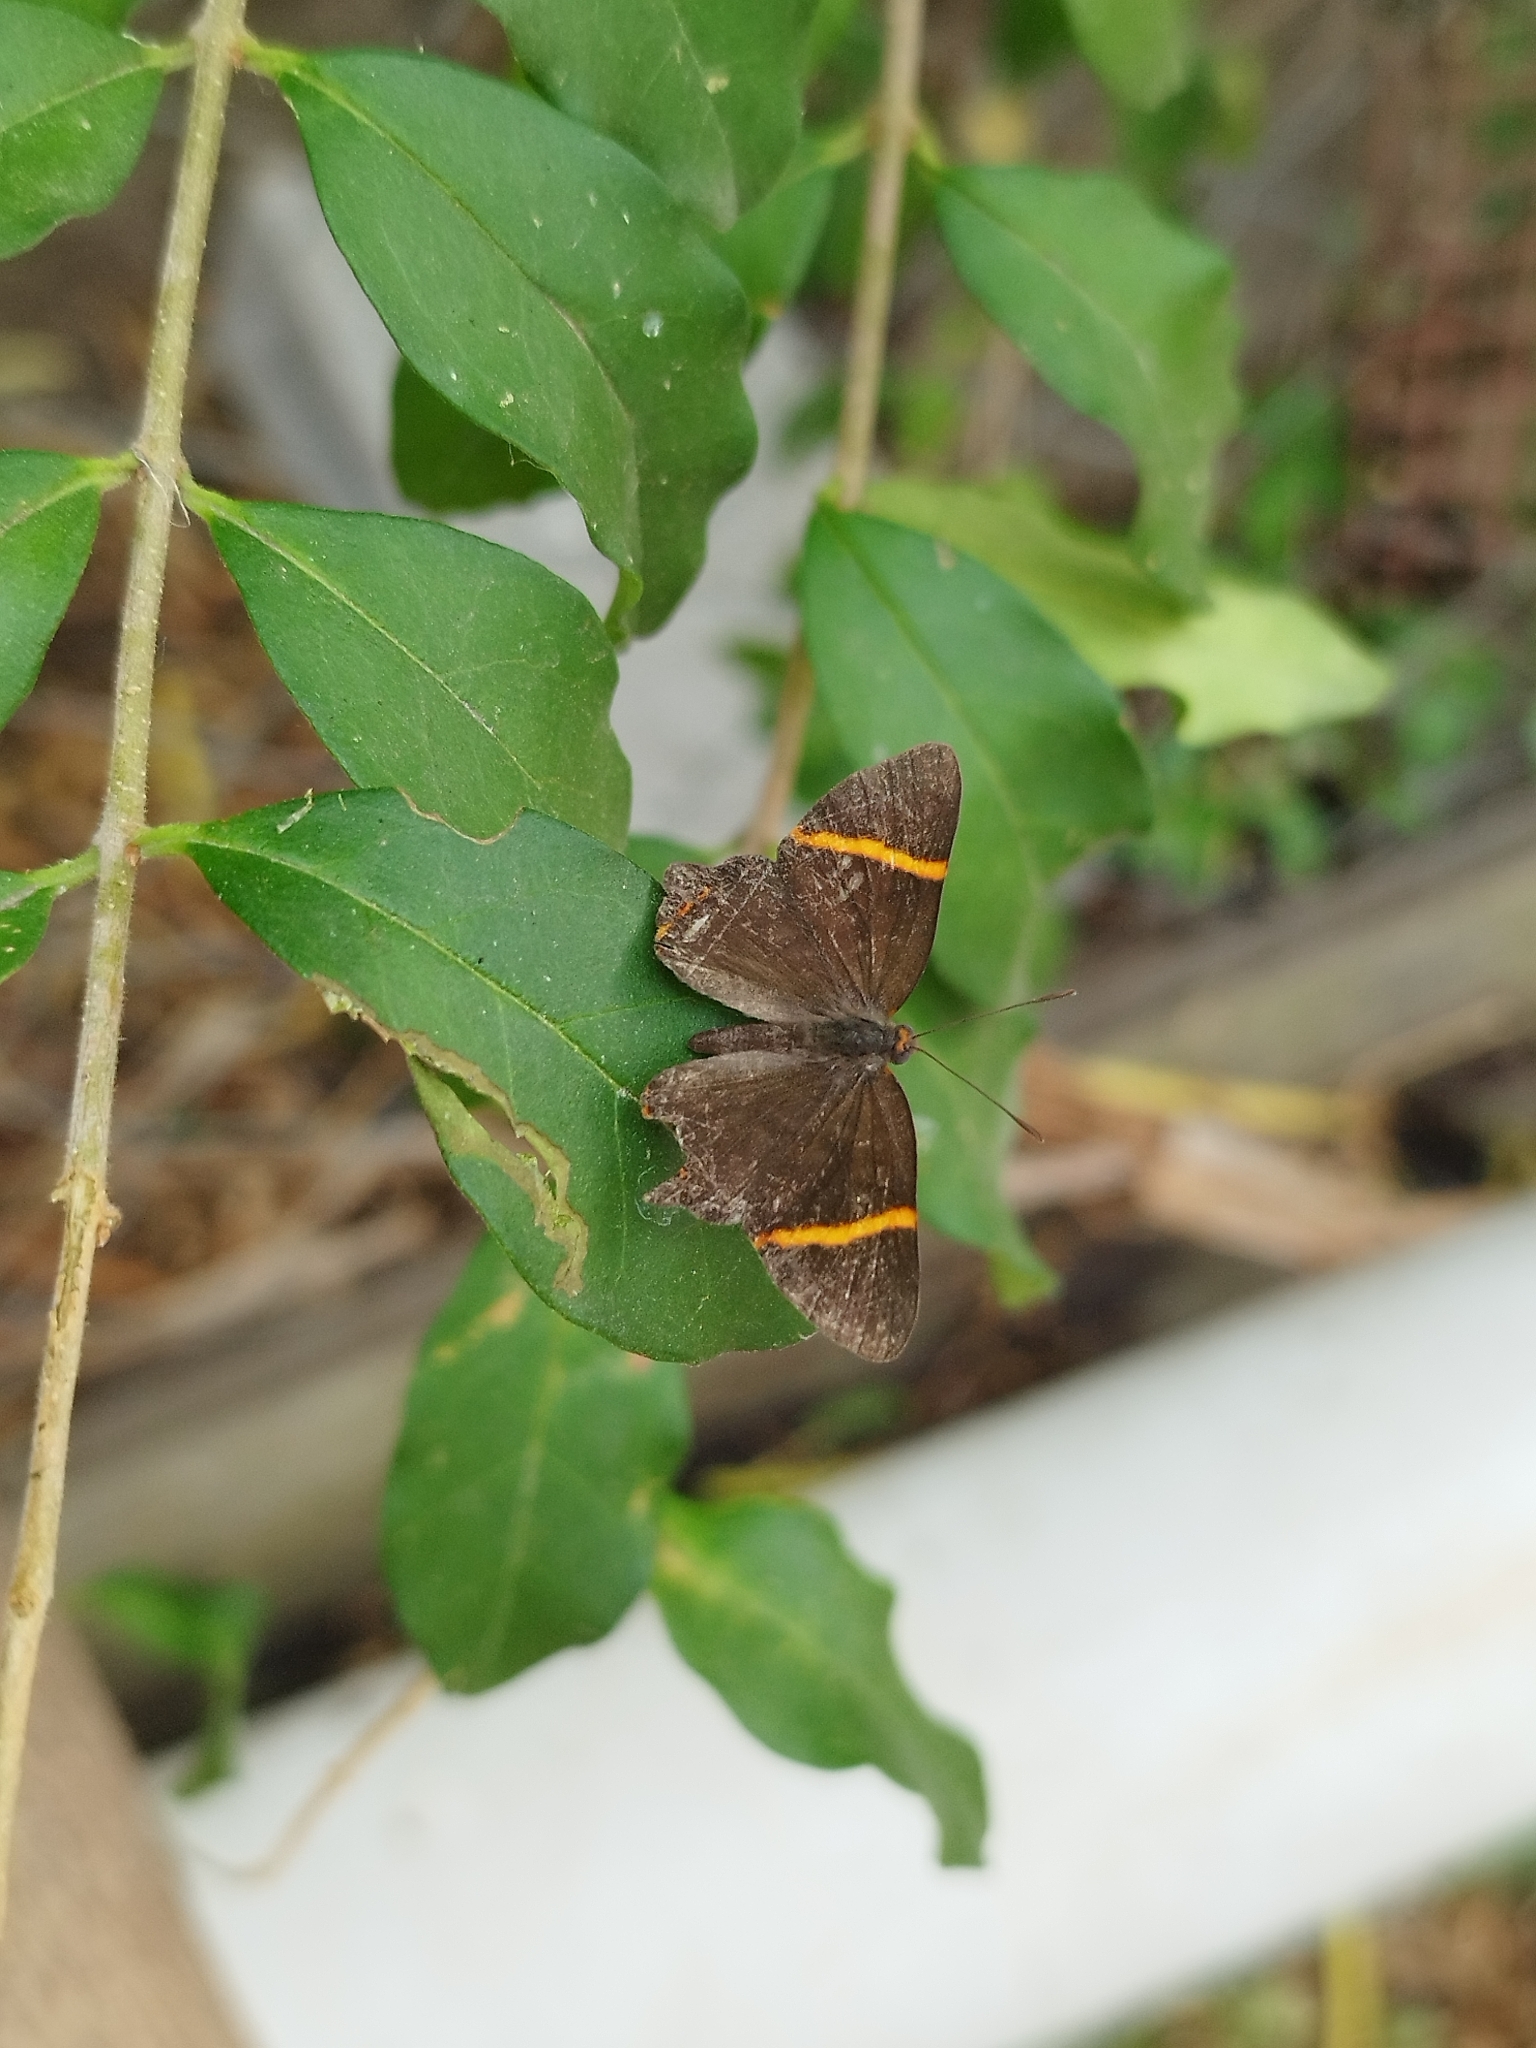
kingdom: Animalia
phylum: Arthropoda
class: Insecta
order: Lepidoptera
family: Riodinidae
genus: Riodina
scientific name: Riodina lysippoides
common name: Little dancer metalmark
